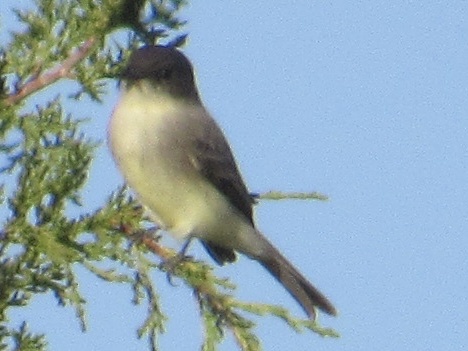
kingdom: Animalia
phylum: Chordata
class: Aves
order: Passeriformes
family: Tyrannidae
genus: Sayornis
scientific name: Sayornis phoebe
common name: Eastern phoebe
